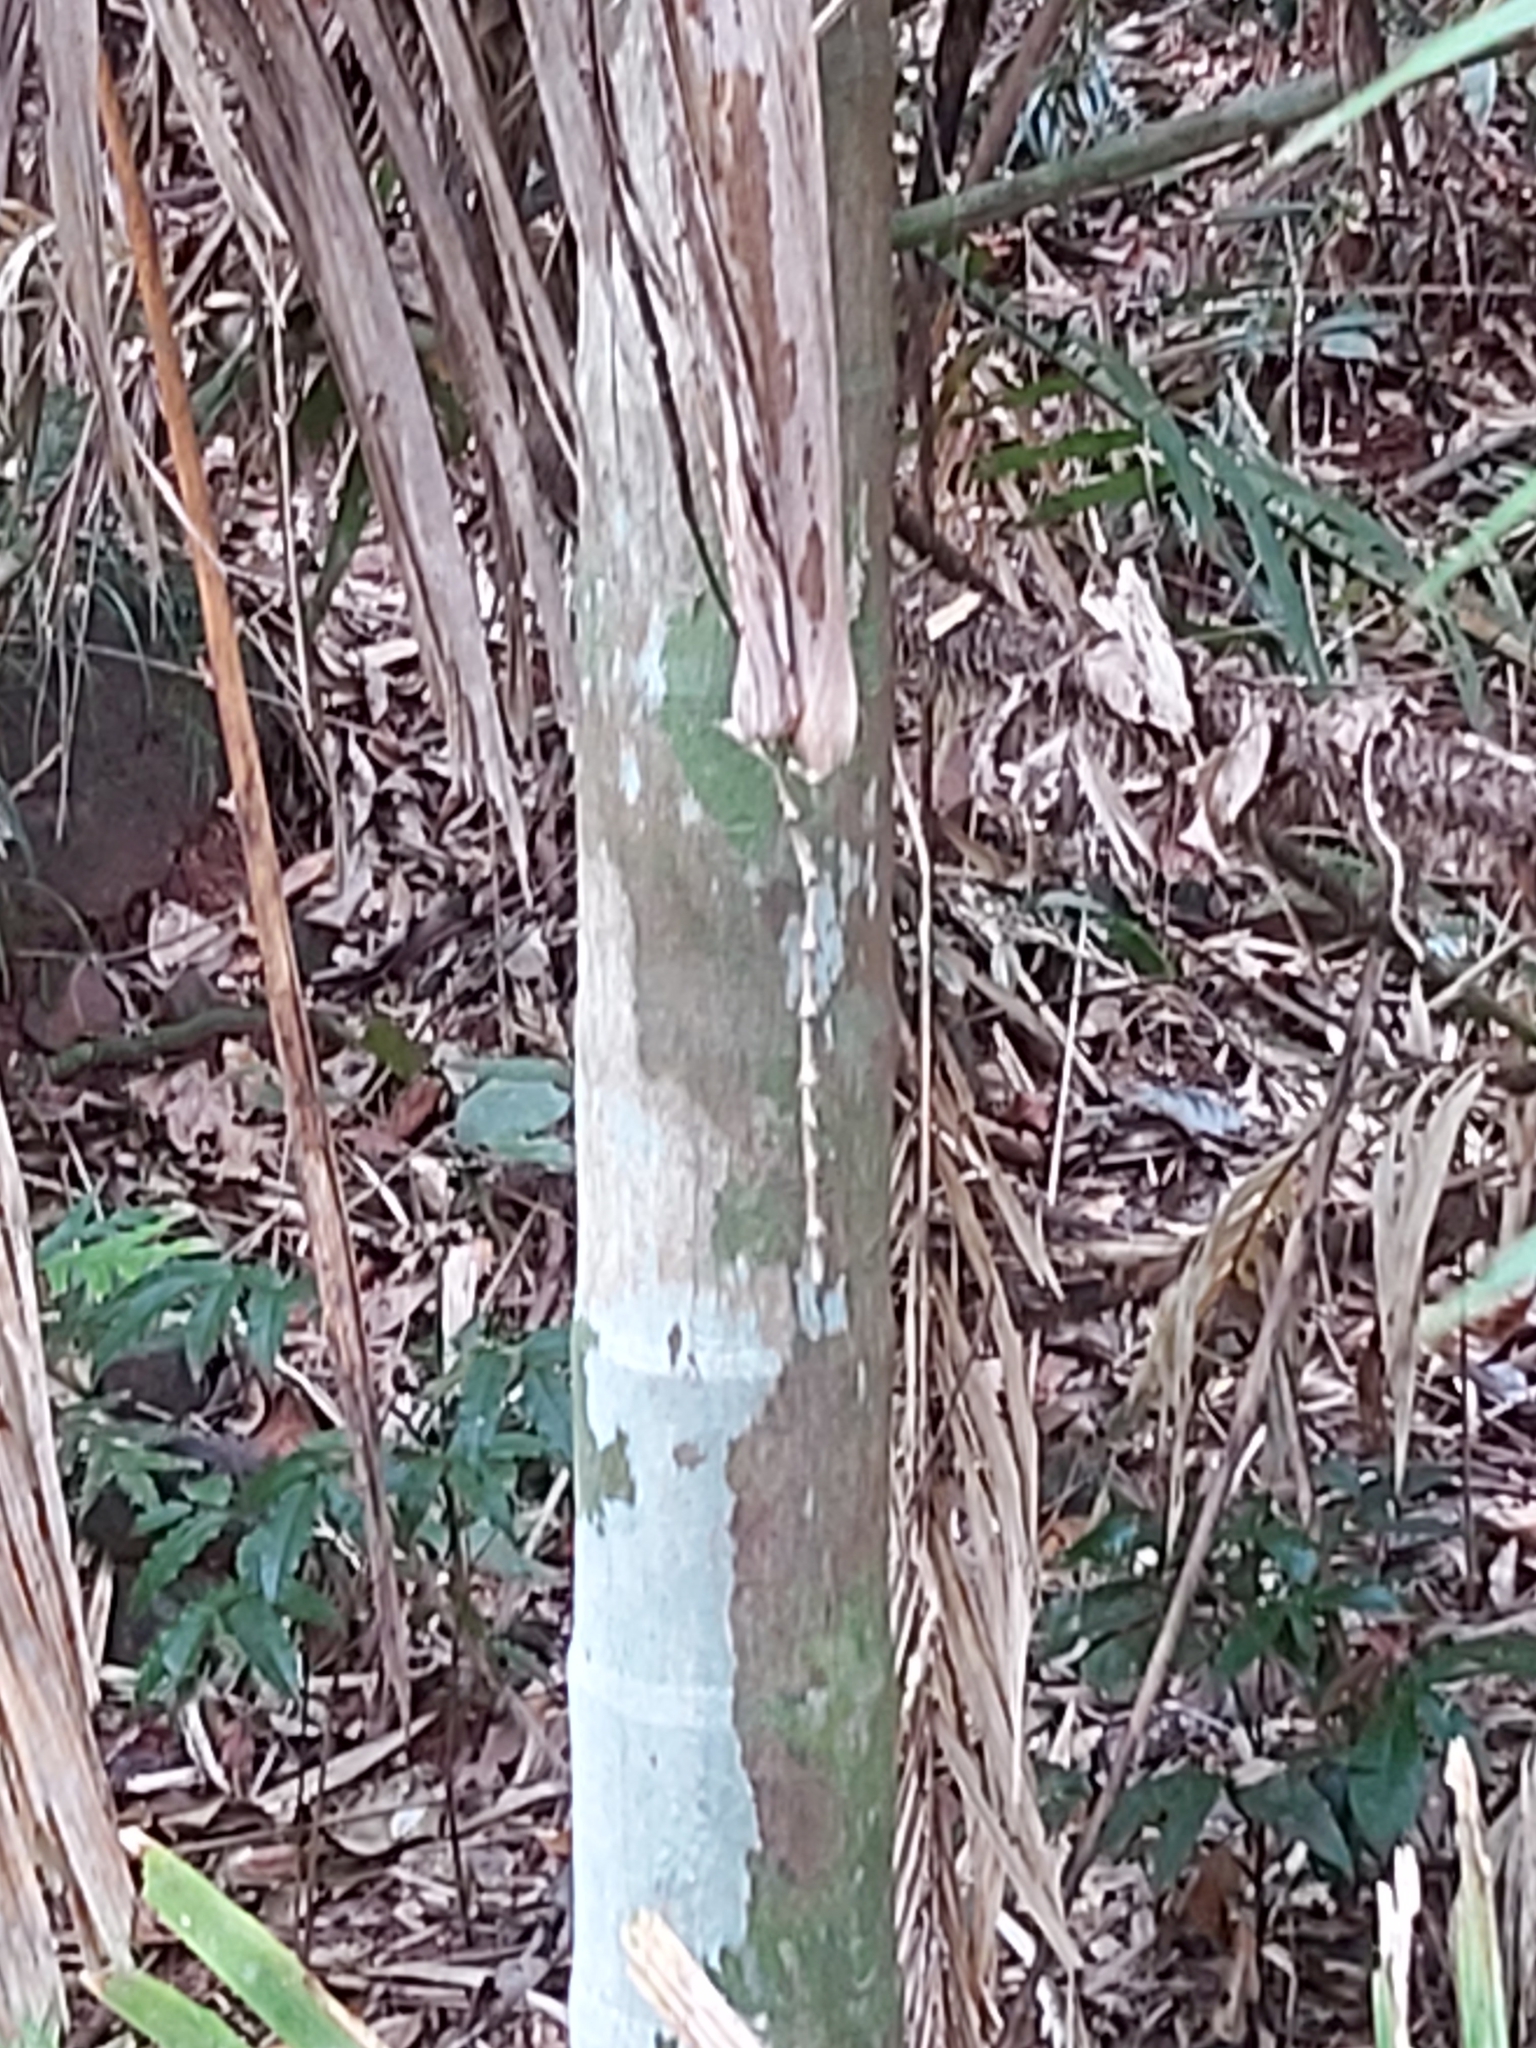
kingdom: Plantae
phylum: Tracheophyta
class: Liliopsida
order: Arecales
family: Arecaceae
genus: Archontophoenix
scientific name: Archontophoenix alexandrae
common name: Alexandra palm
